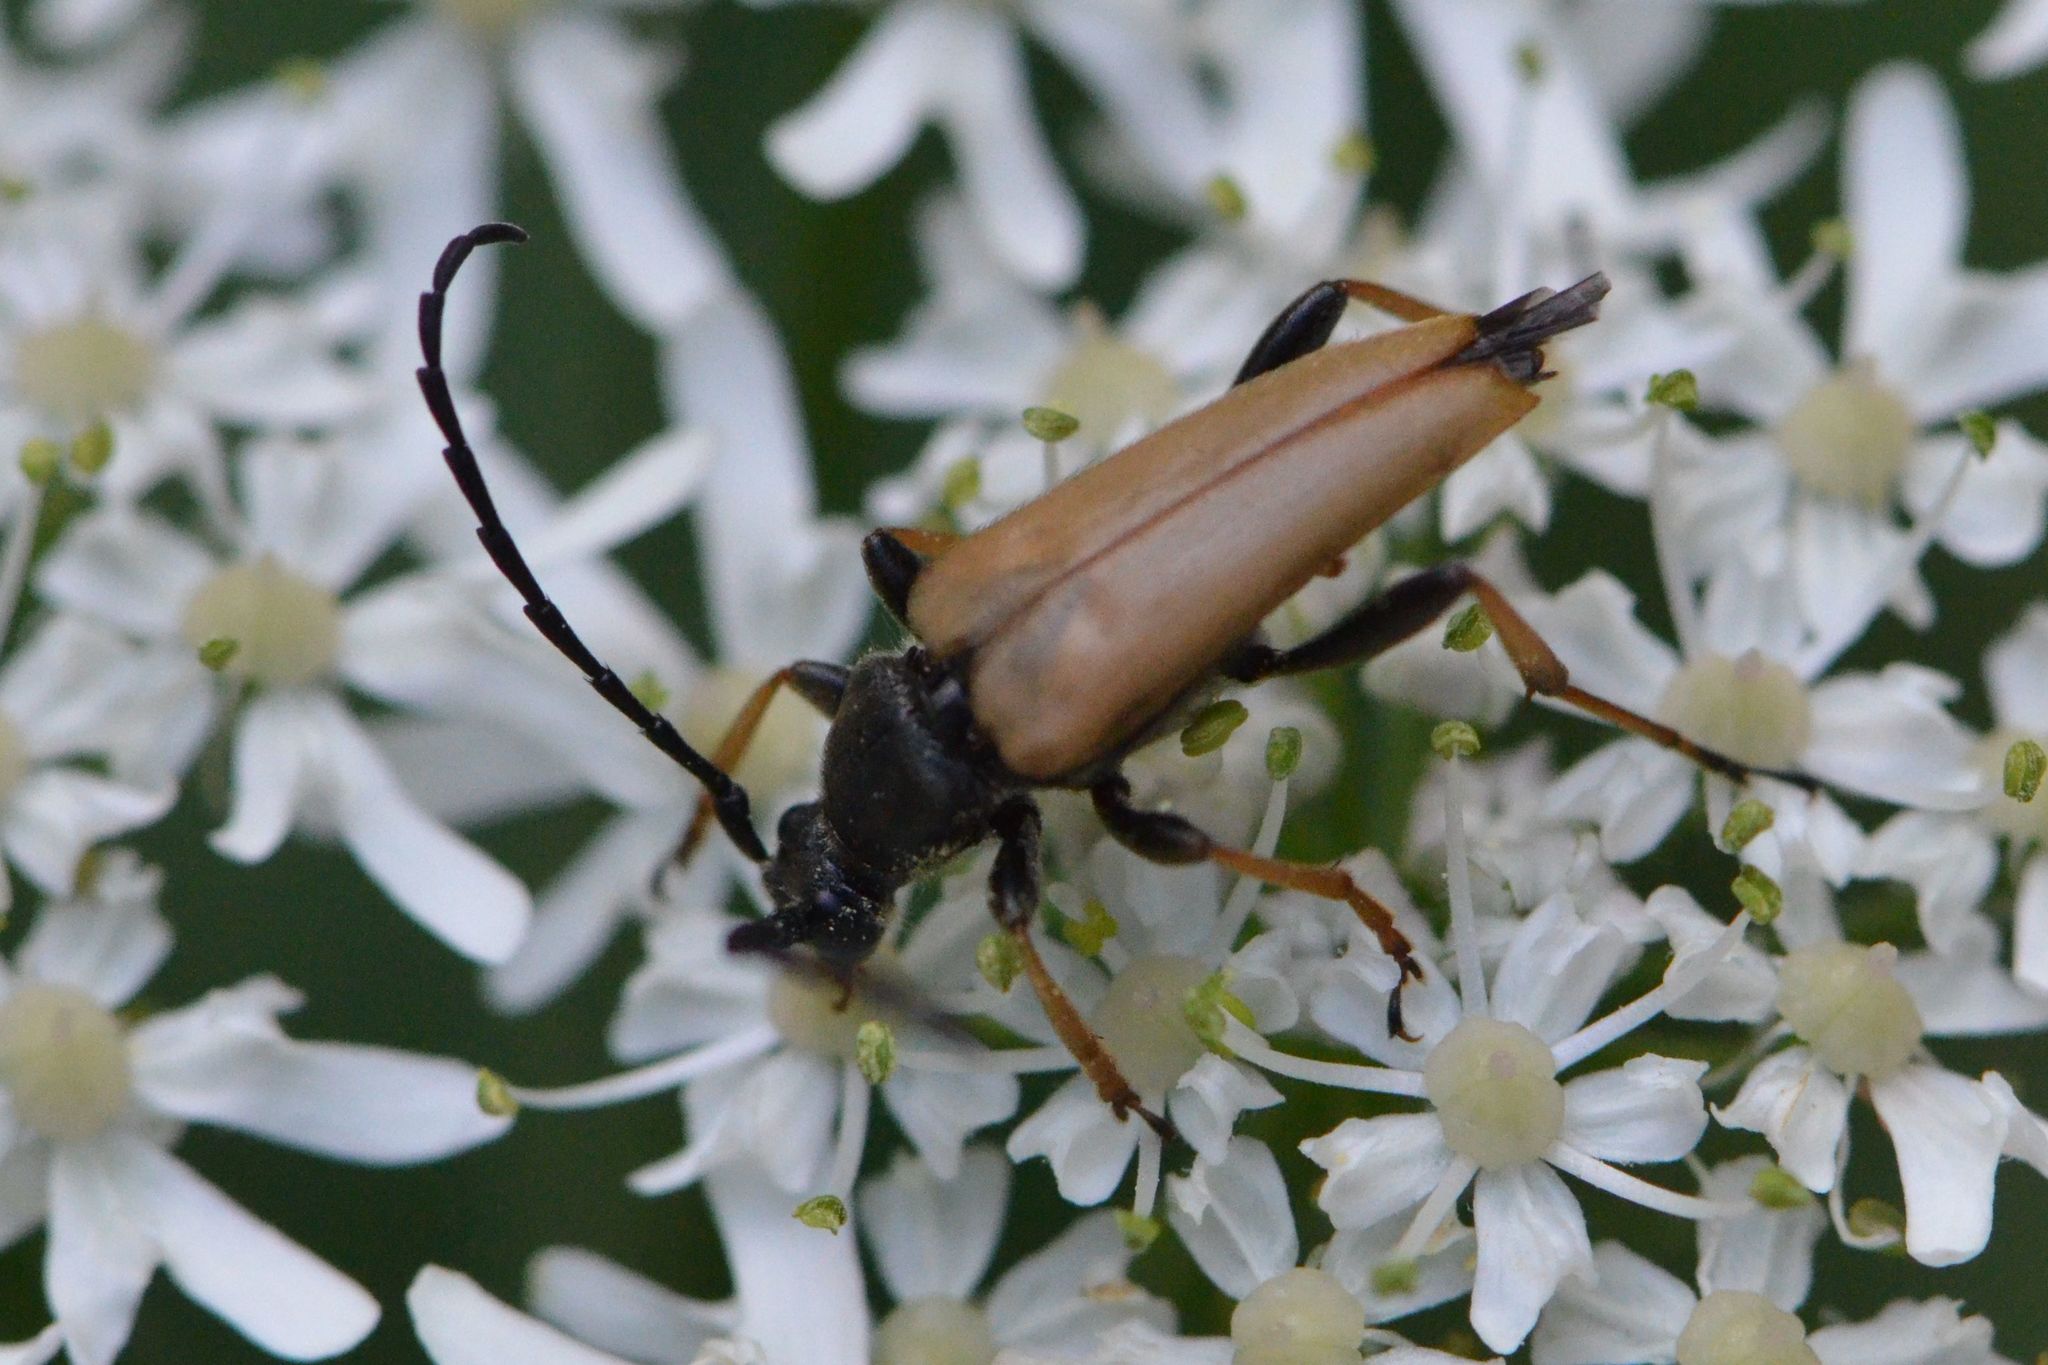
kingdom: Animalia
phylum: Arthropoda
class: Insecta
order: Coleoptera
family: Cerambycidae
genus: Stictoleptura
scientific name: Stictoleptura rubra
